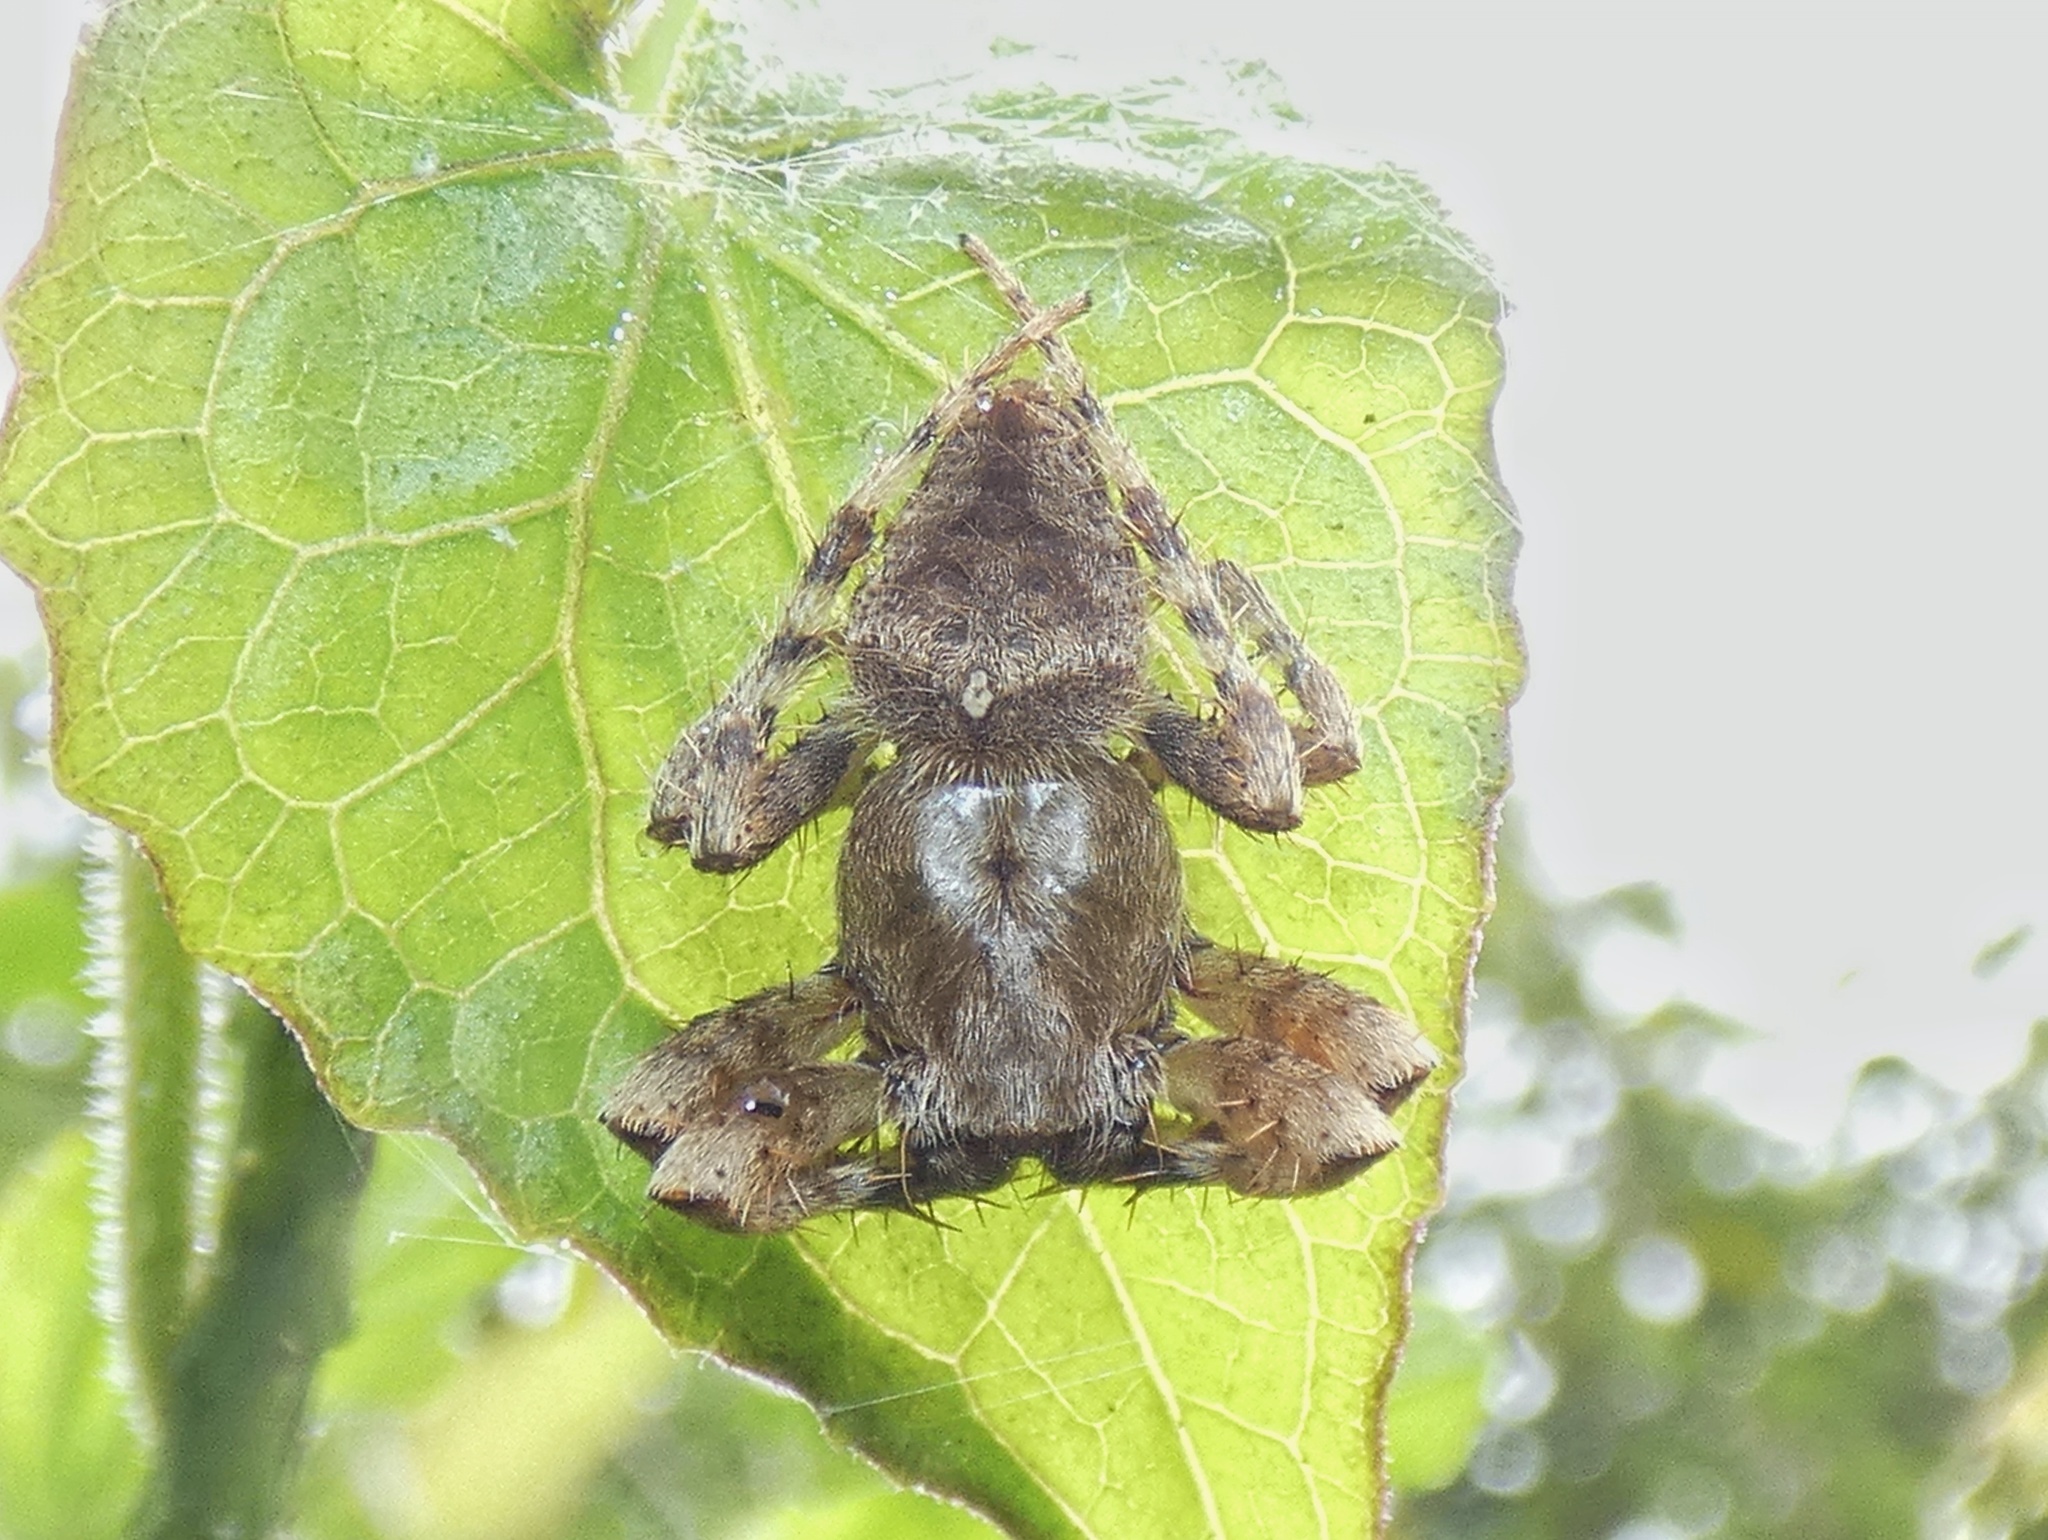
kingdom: Animalia
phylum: Arthropoda
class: Arachnida
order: Araneae
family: Araneidae
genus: Eriophora
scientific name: Eriophora edax
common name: Orb weavers
